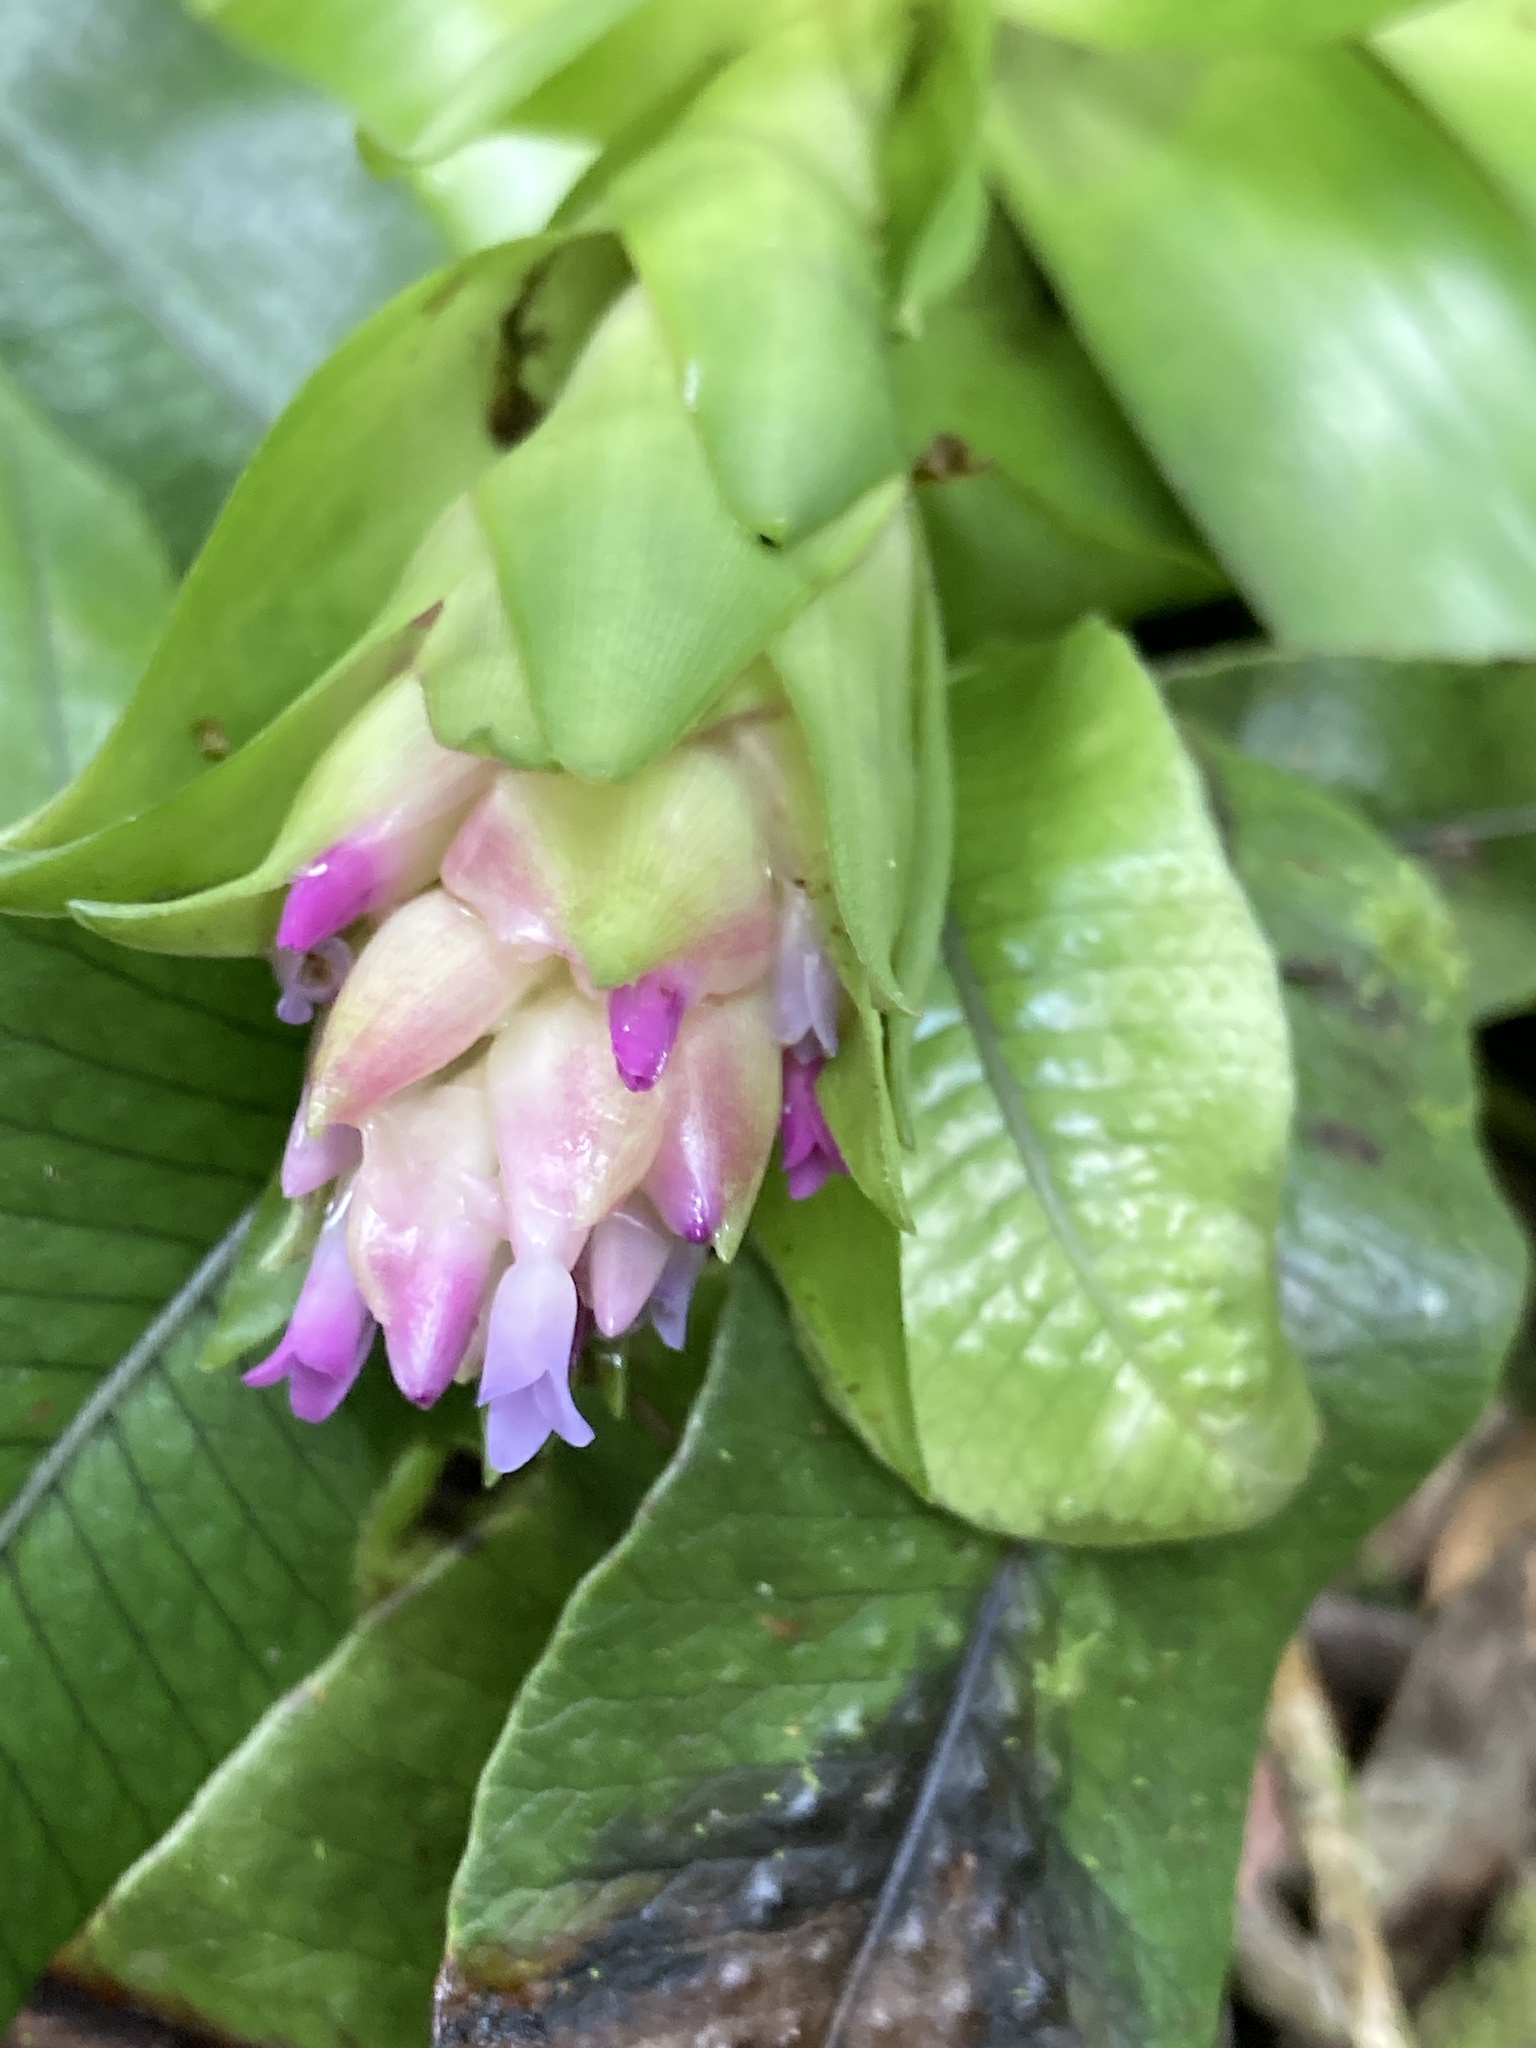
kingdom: Plantae
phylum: Tracheophyta
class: Liliopsida
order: Poales
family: Bromeliaceae
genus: Tillandsia
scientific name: Tillandsia biflora
